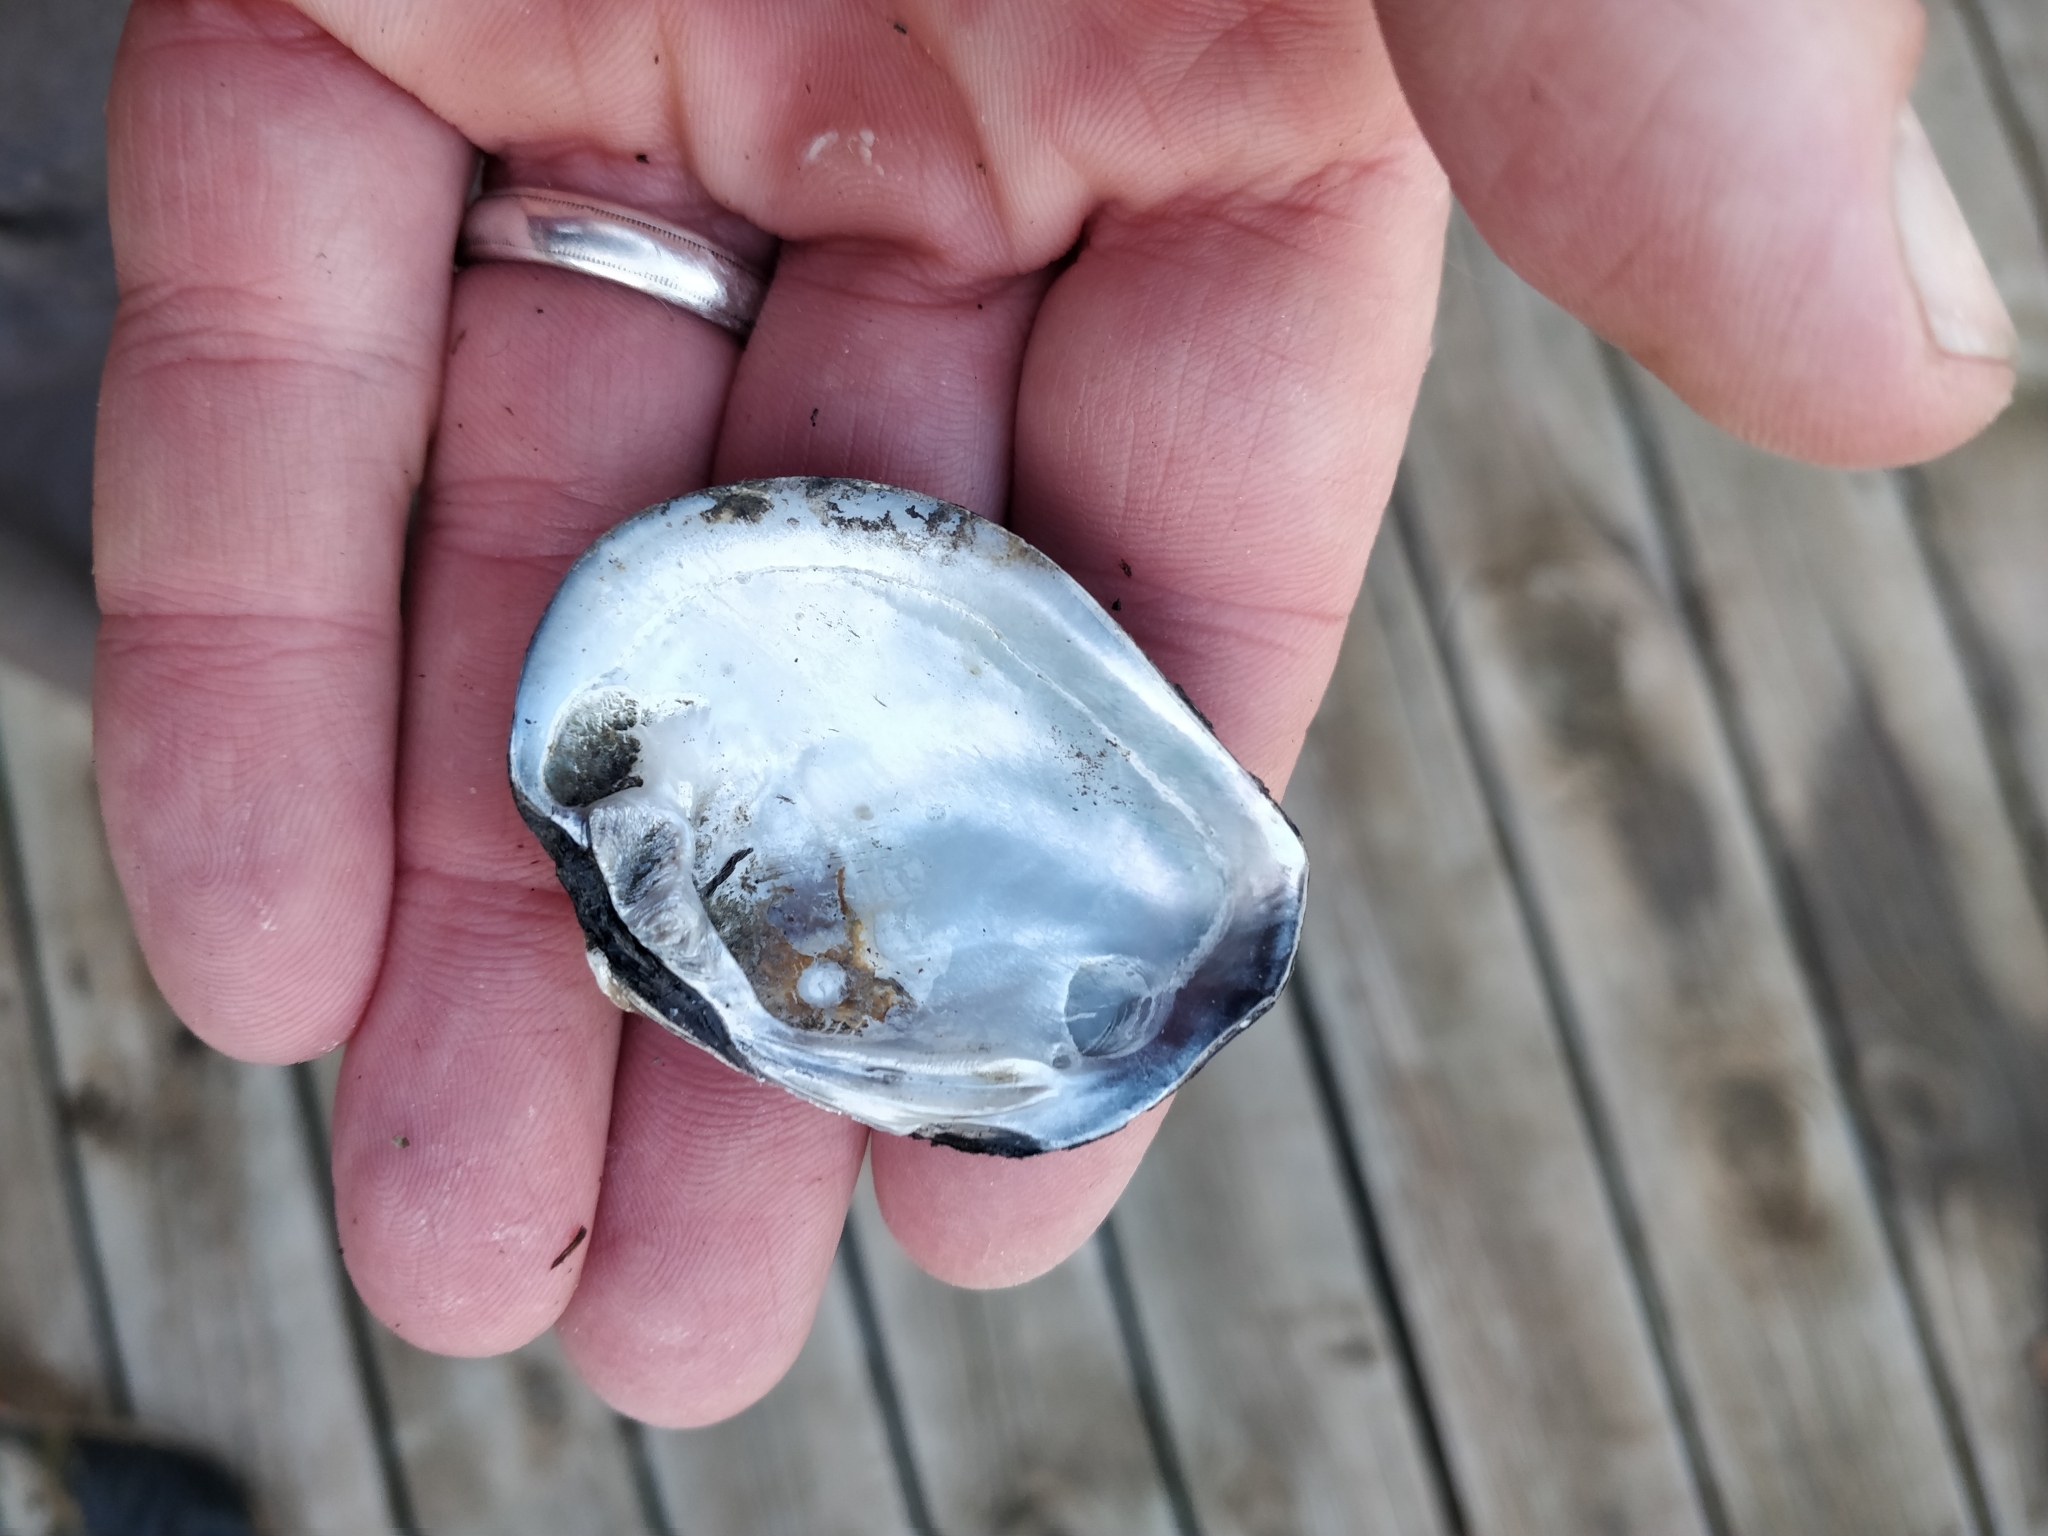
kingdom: Animalia
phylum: Mollusca
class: Bivalvia
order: Unionida
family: Unionidae
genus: Fusconaia
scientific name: Fusconaia flava
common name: Wabash pigtoe
